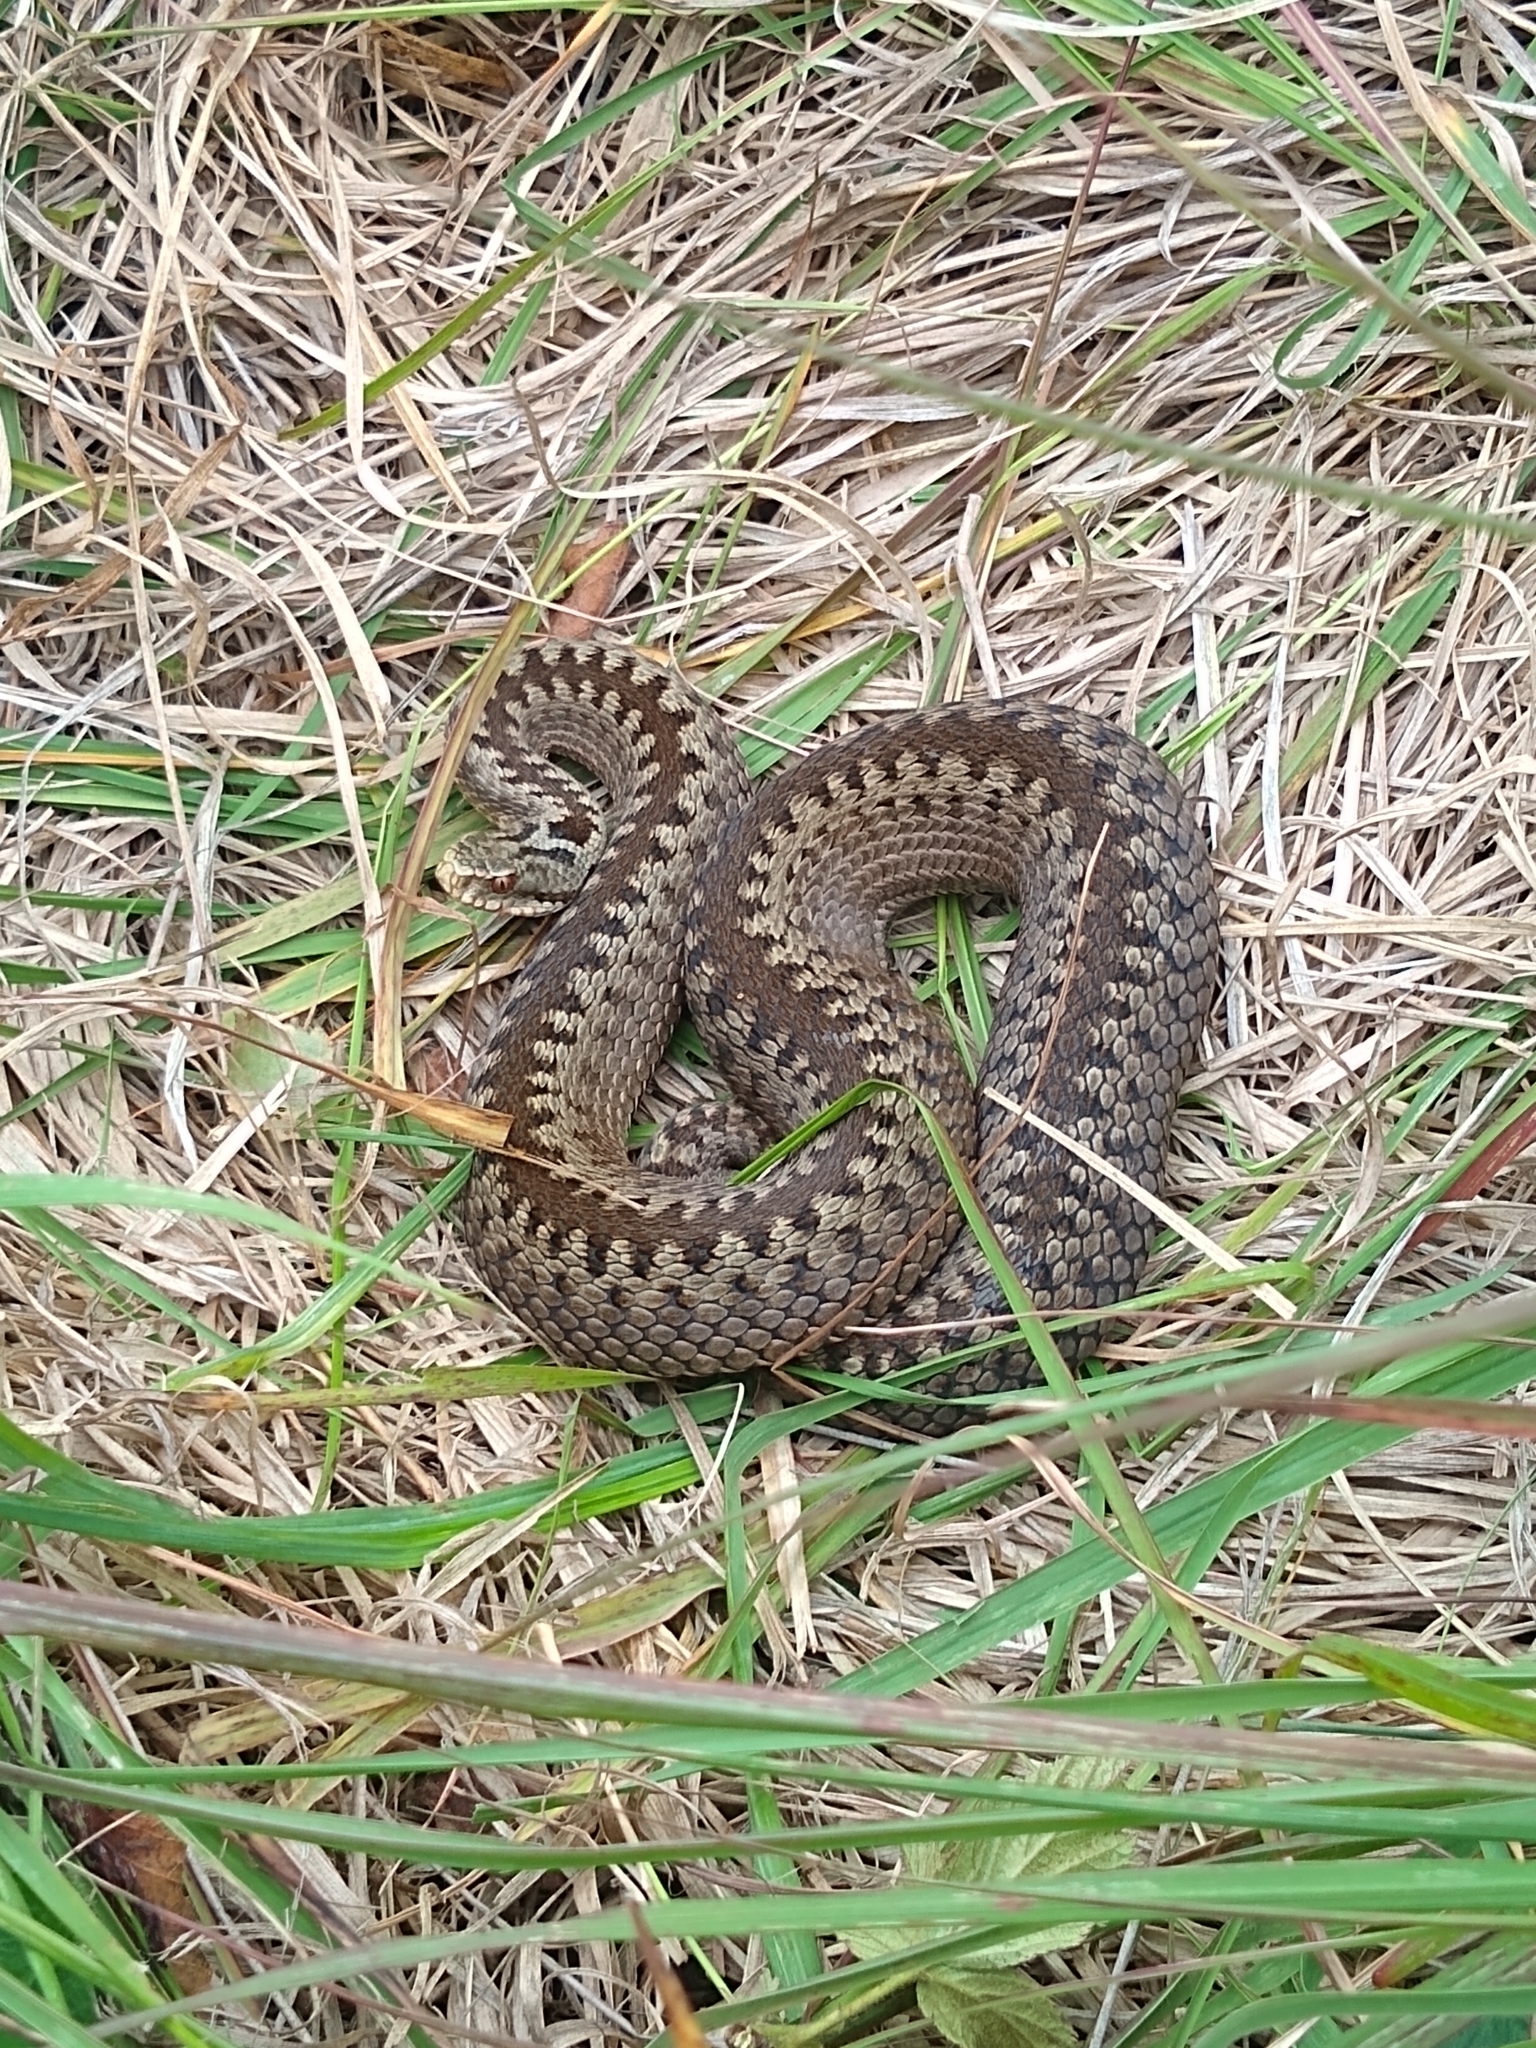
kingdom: Animalia
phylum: Chordata
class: Squamata
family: Viperidae
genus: Vipera
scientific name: Vipera berus
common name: Adder
